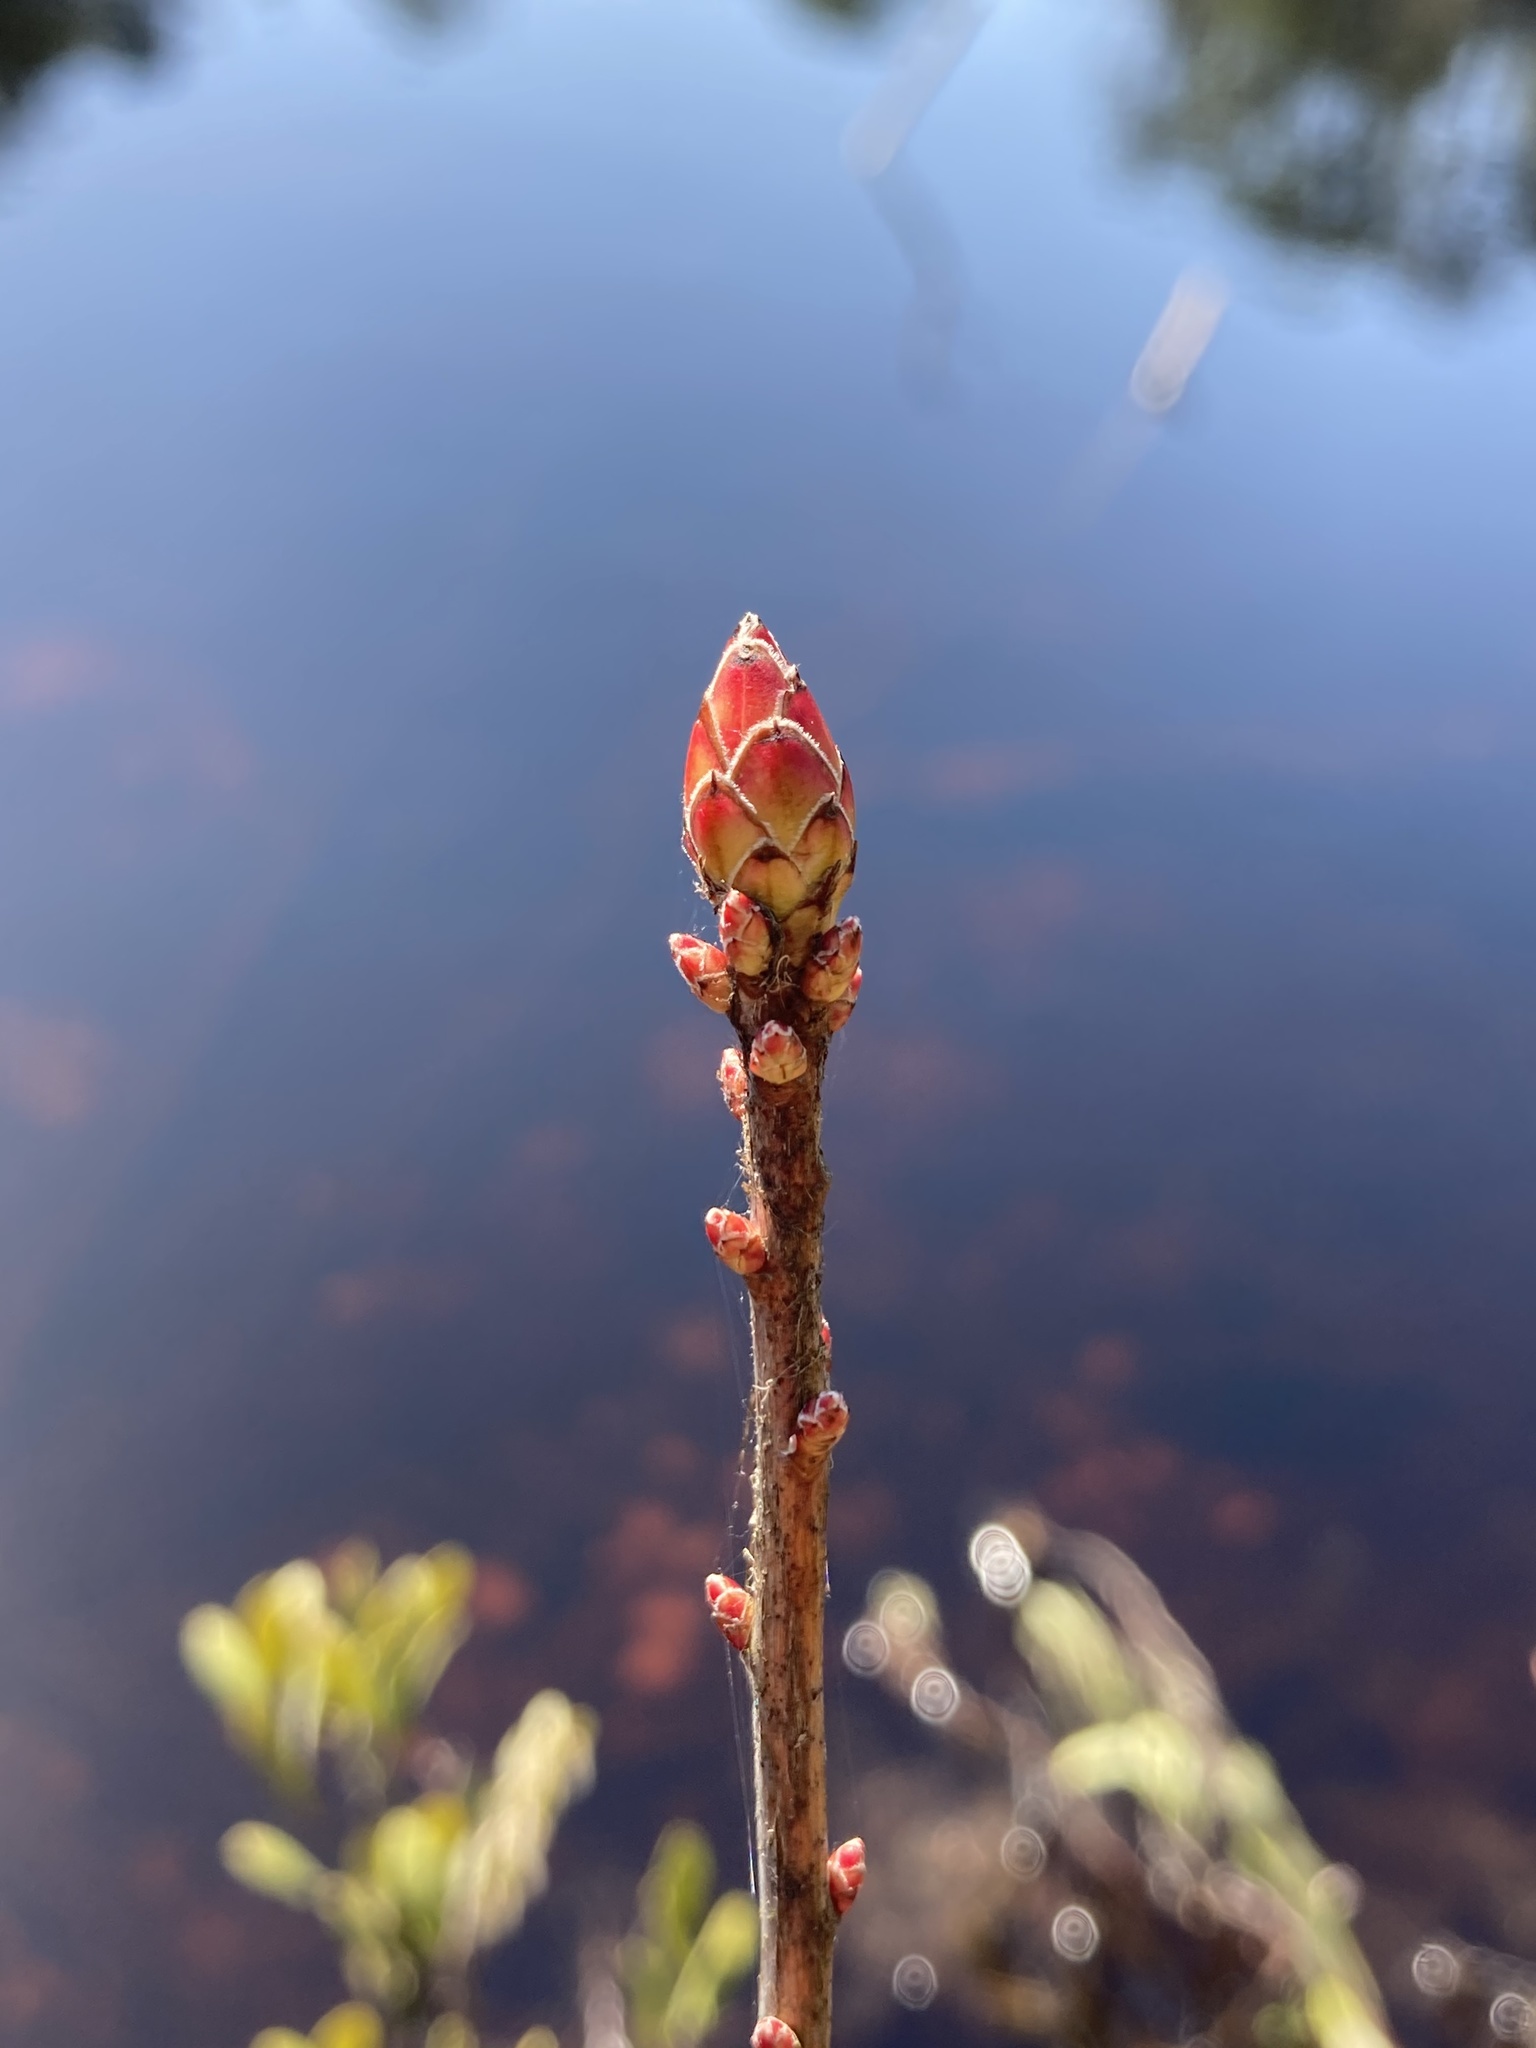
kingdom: Plantae
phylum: Tracheophyta
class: Magnoliopsida
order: Ericales
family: Ericaceae
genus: Rhododendron
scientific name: Rhododendron viscosum
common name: Clammy azalea
